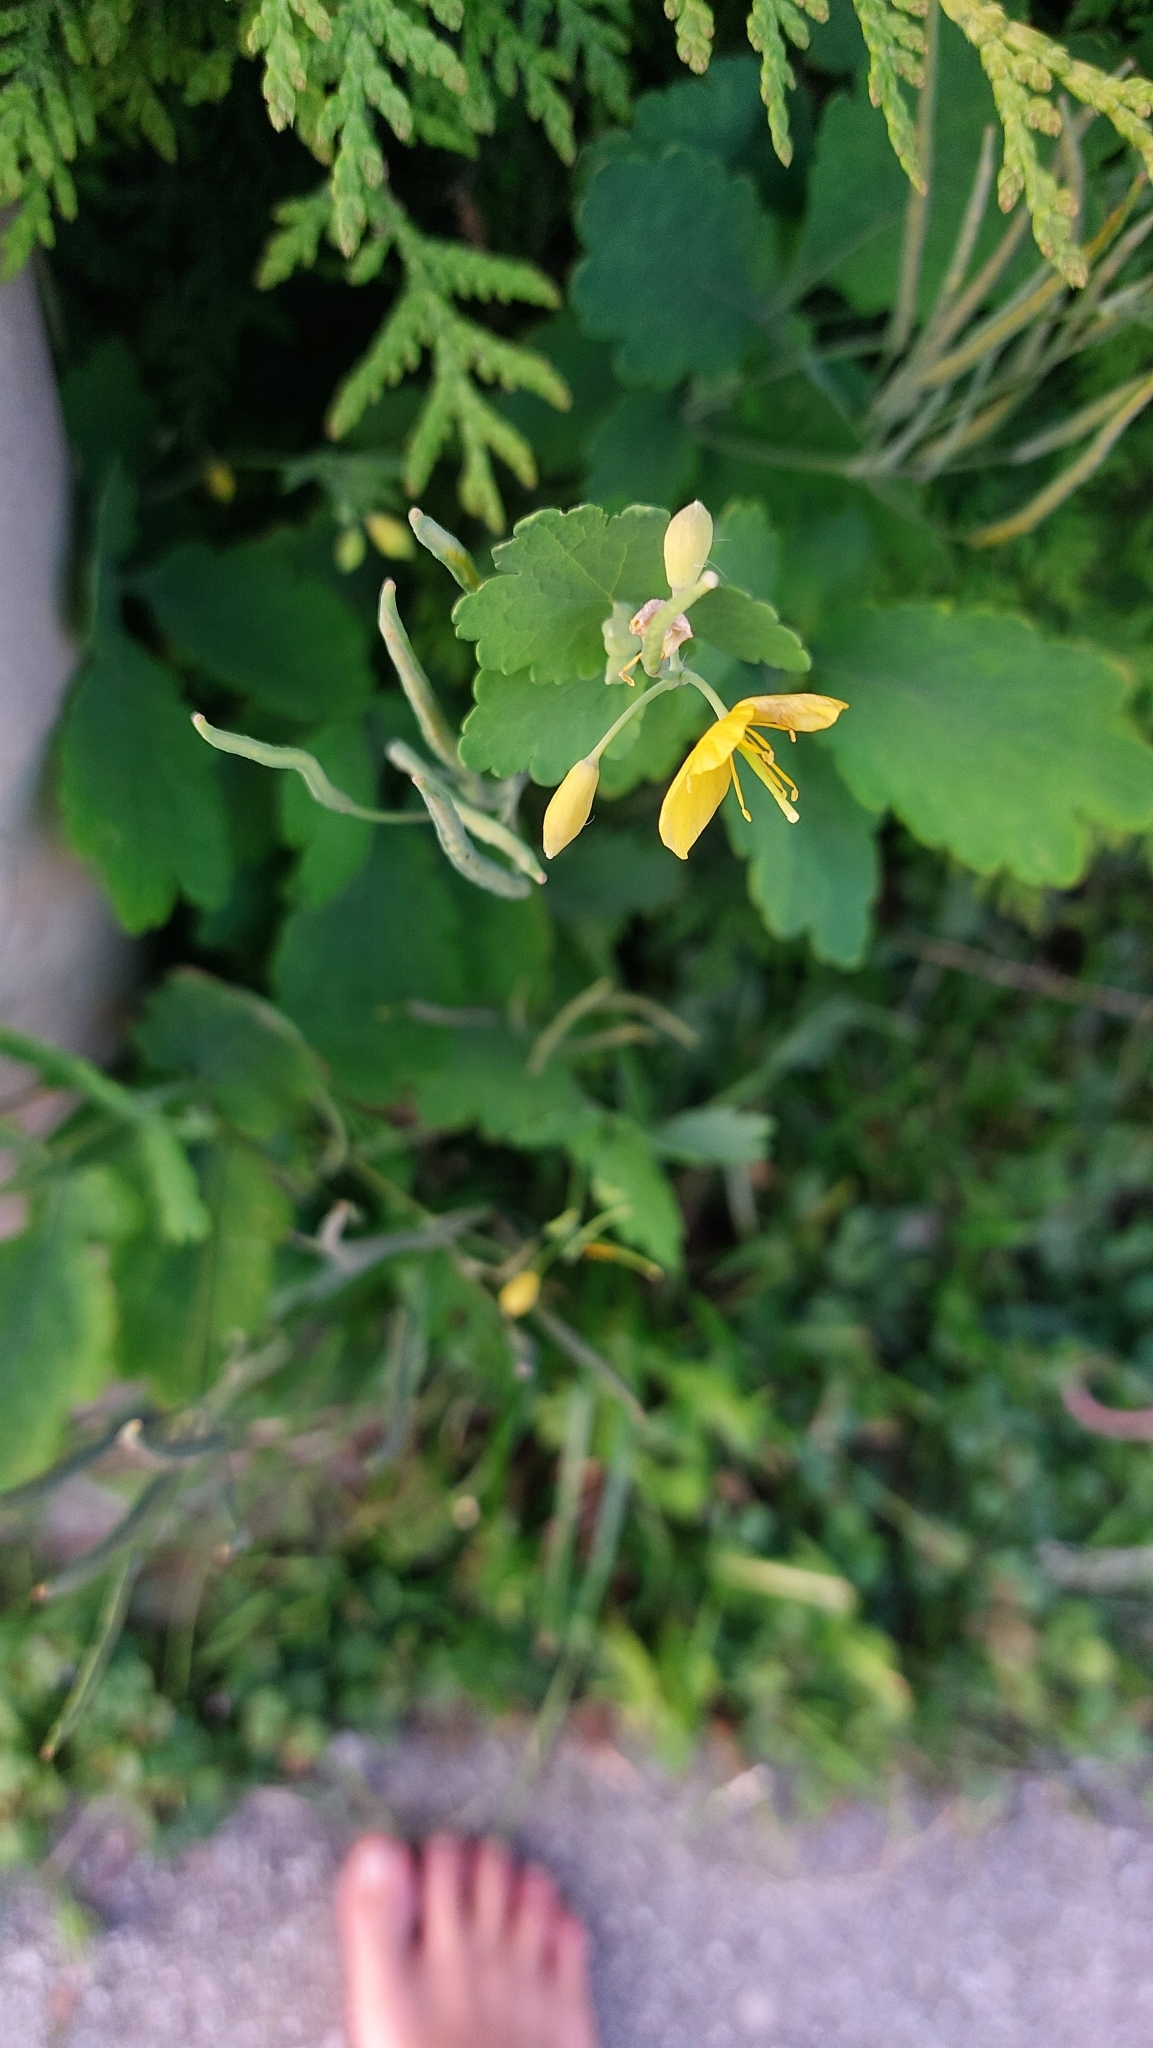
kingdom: Plantae
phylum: Tracheophyta
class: Magnoliopsida
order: Ranunculales
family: Papaveraceae
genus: Chelidonium
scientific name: Chelidonium majus
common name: Greater celandine
